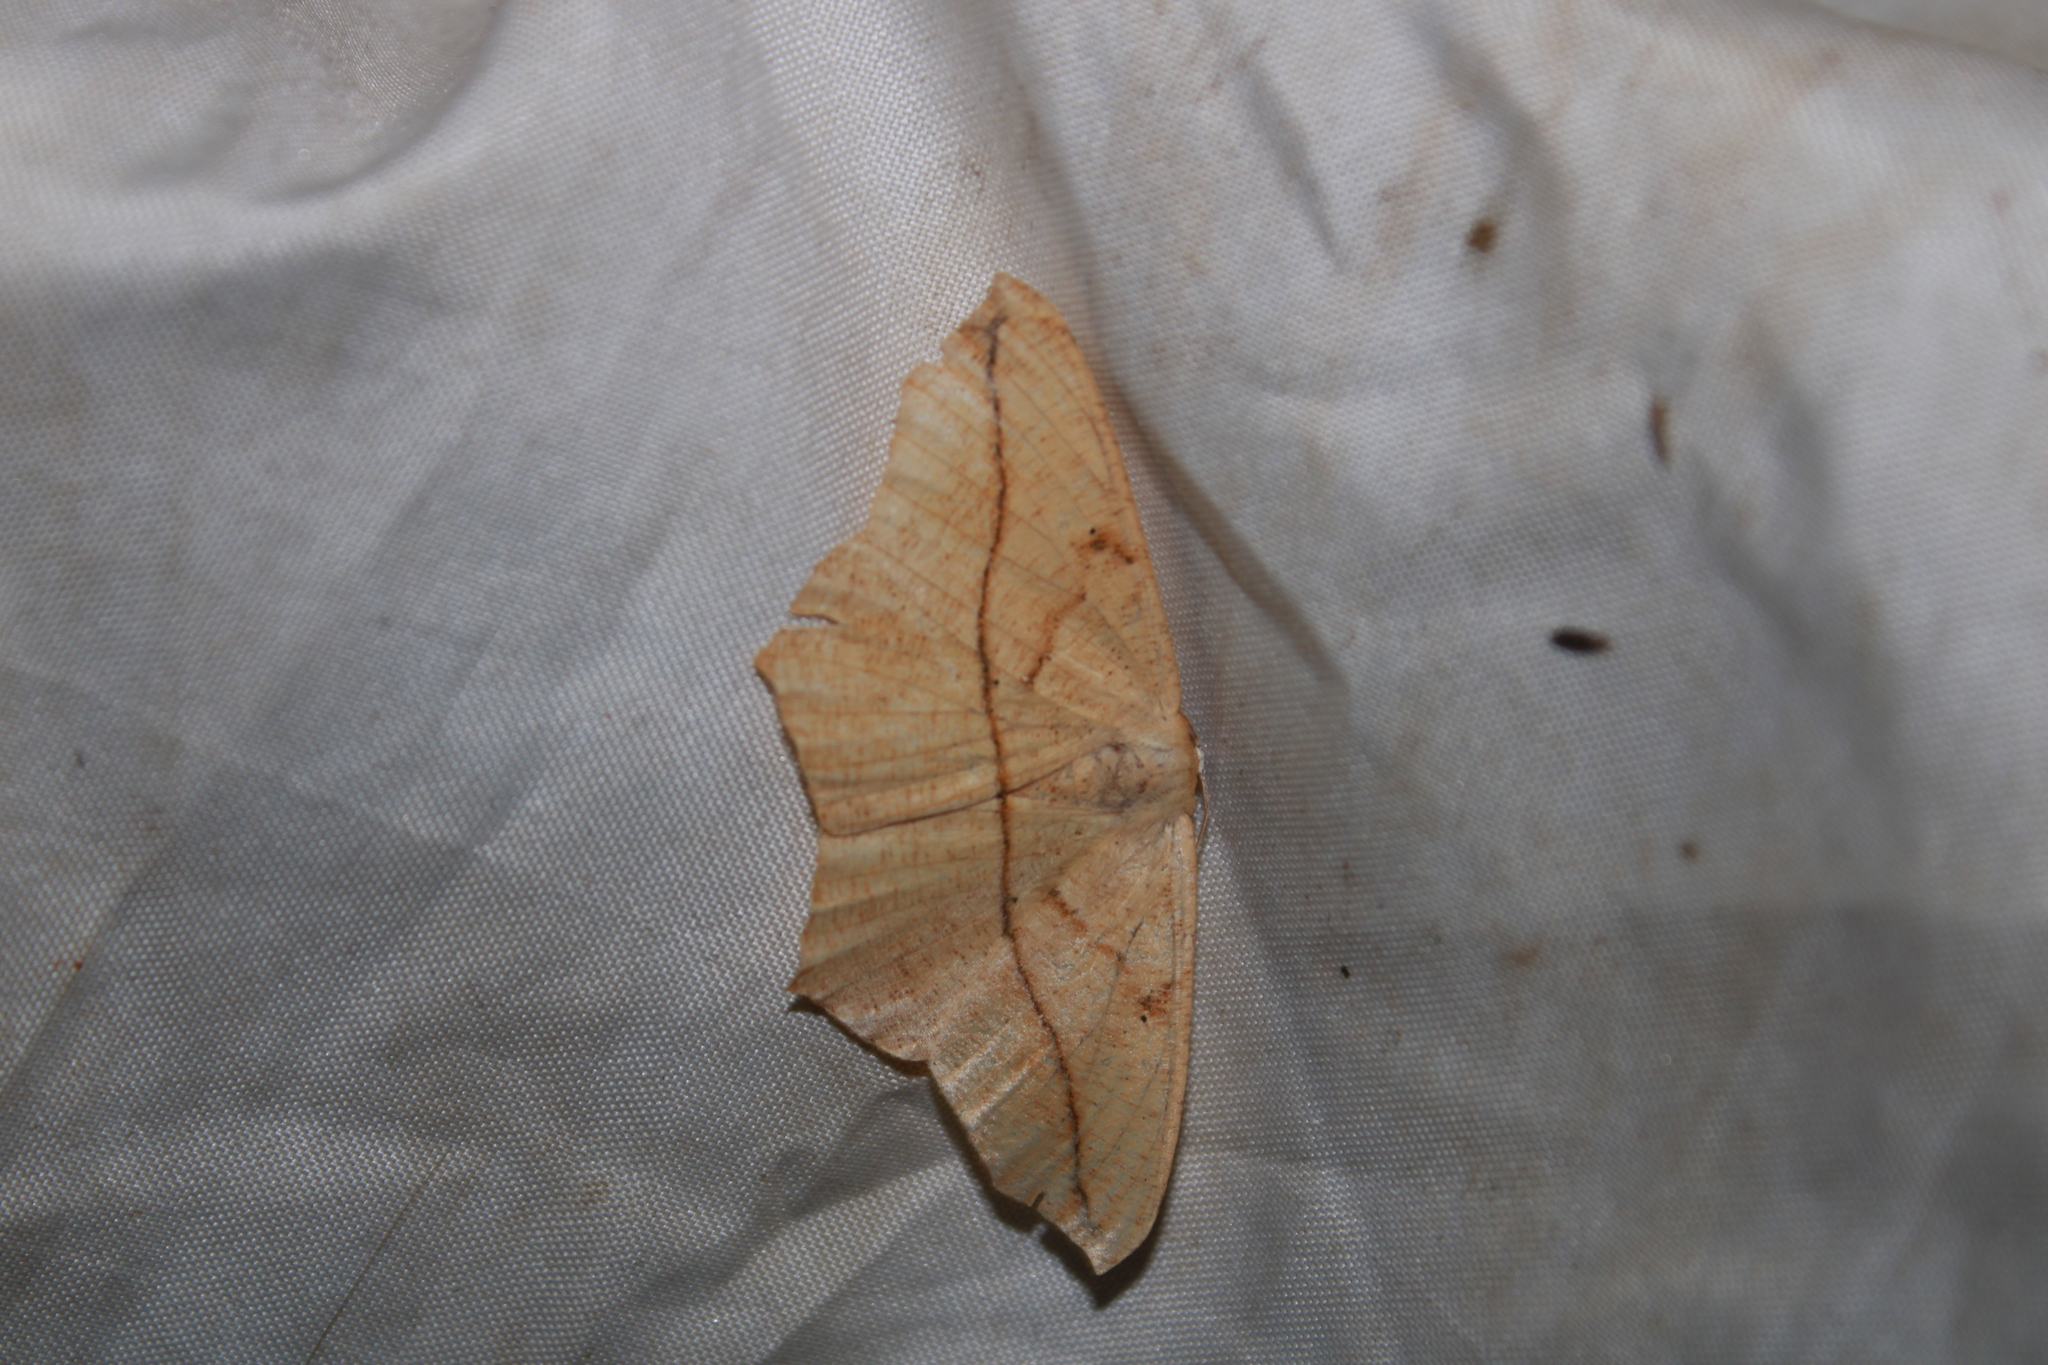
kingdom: Animalia
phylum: Arthropoda
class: Insecta
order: Lepidoptera
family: Geometridae
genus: Prochoerodes
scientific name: Prochoerodes lineola
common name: Large maple spanworm
